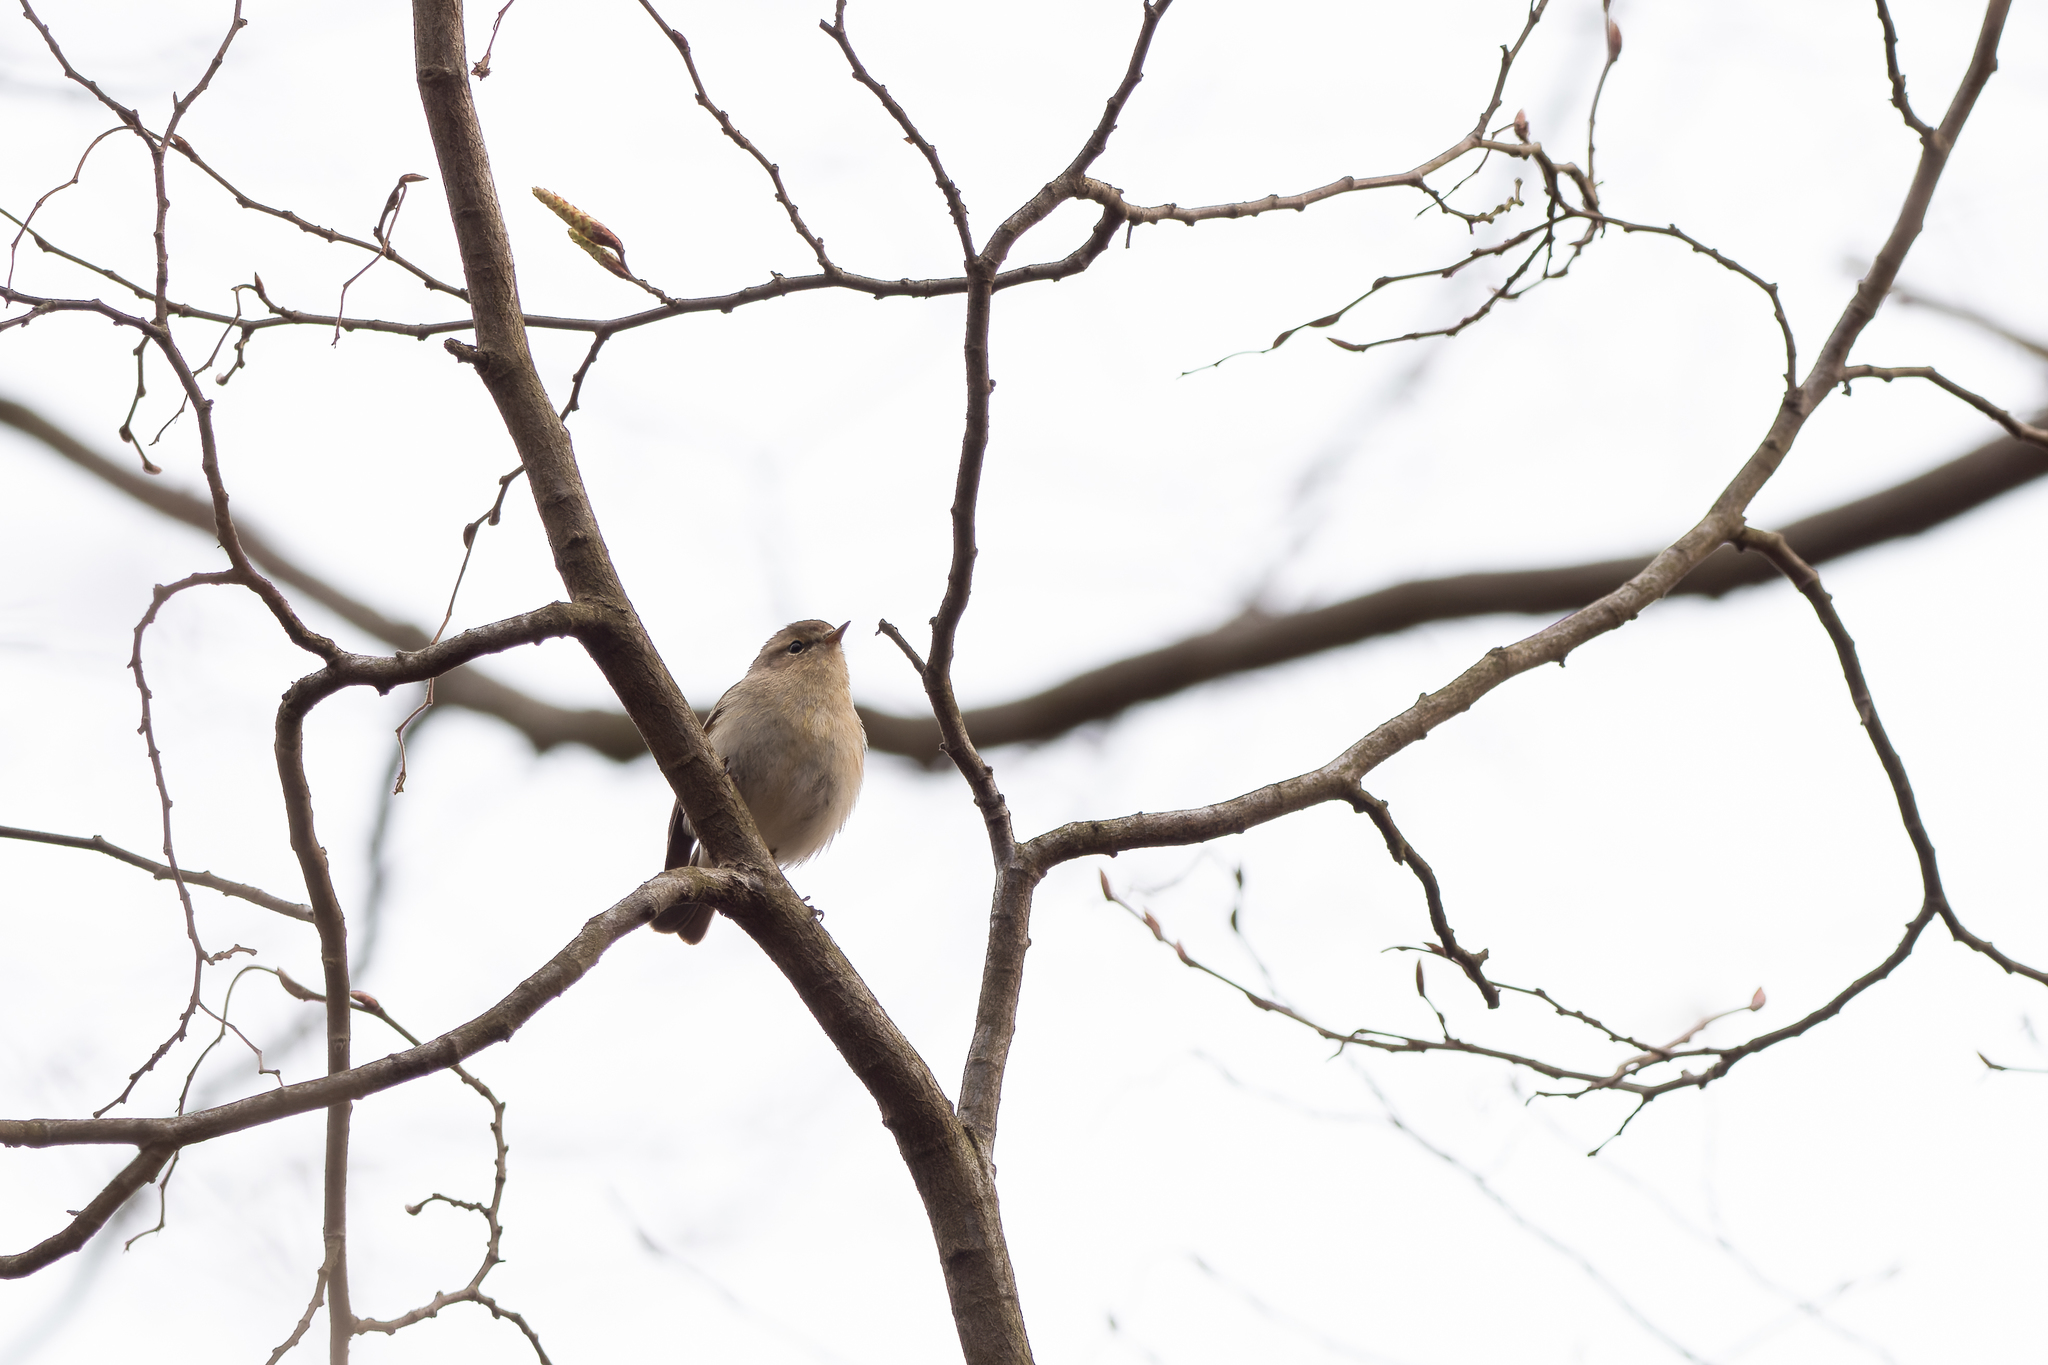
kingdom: Animalia
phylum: Chordata
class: Aves
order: Passeriformes
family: Phylloscopidae
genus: Phylloscopus
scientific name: Phylloscopus collybita
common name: Common chiffchaff
